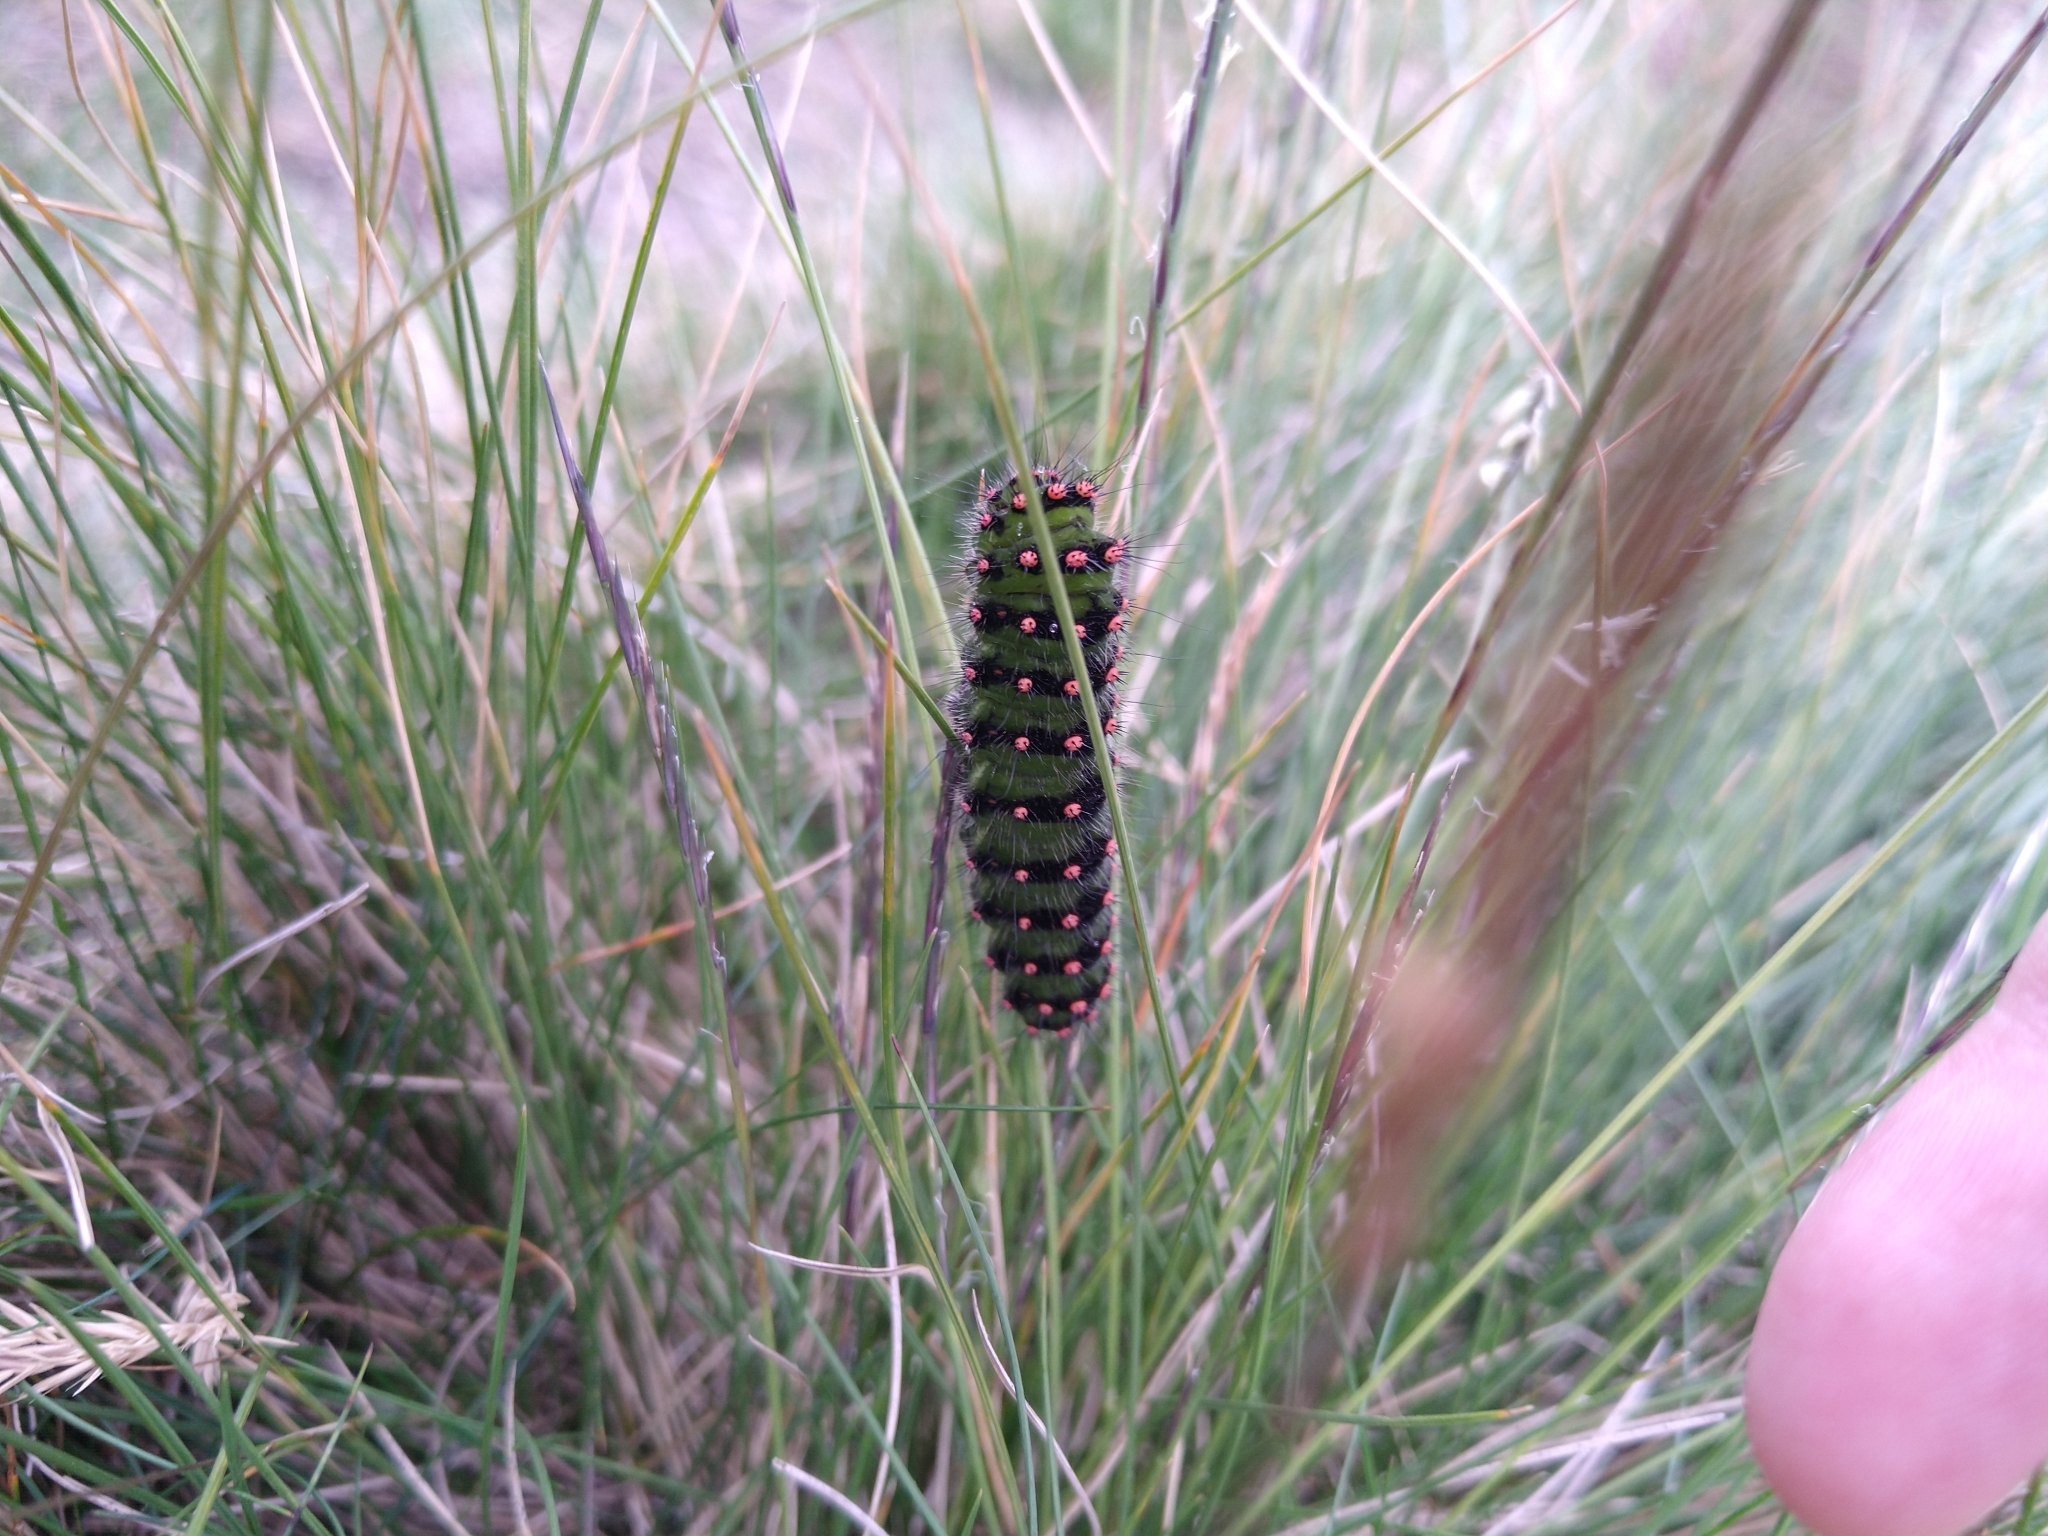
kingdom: Animalia
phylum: Arthropoda
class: Insecta
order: Lepidoptera
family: Saturniidae
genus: Saturnia
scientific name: Saturnia pavonia
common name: Emperor moth
